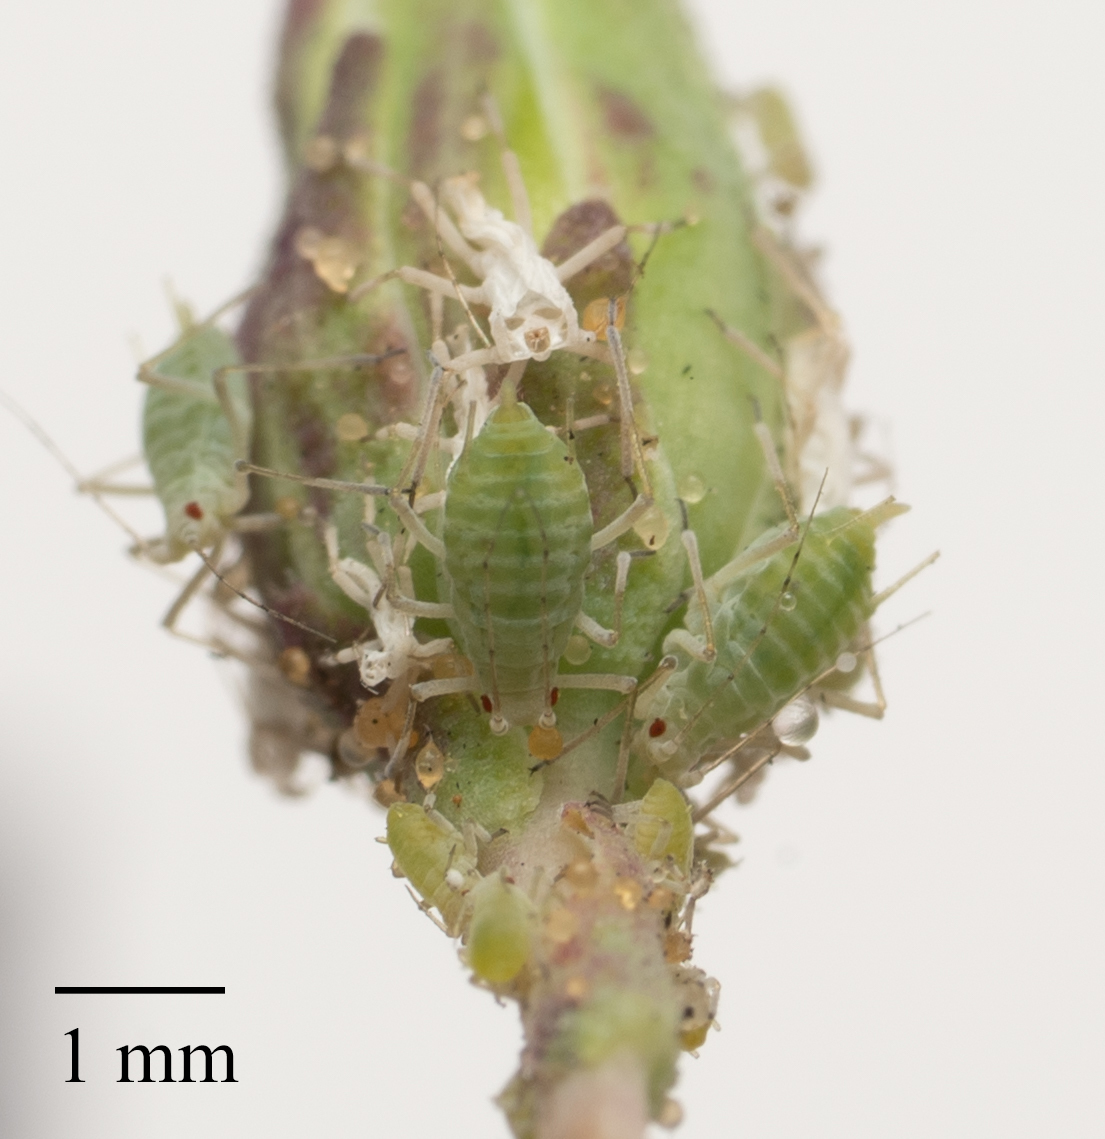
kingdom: Animalia
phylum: Arthropoda
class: Insecta
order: Hemiptera
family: Aphididae
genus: Acyrthosiphon
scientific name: Acyrthosiphon lactucae
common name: Aphid
